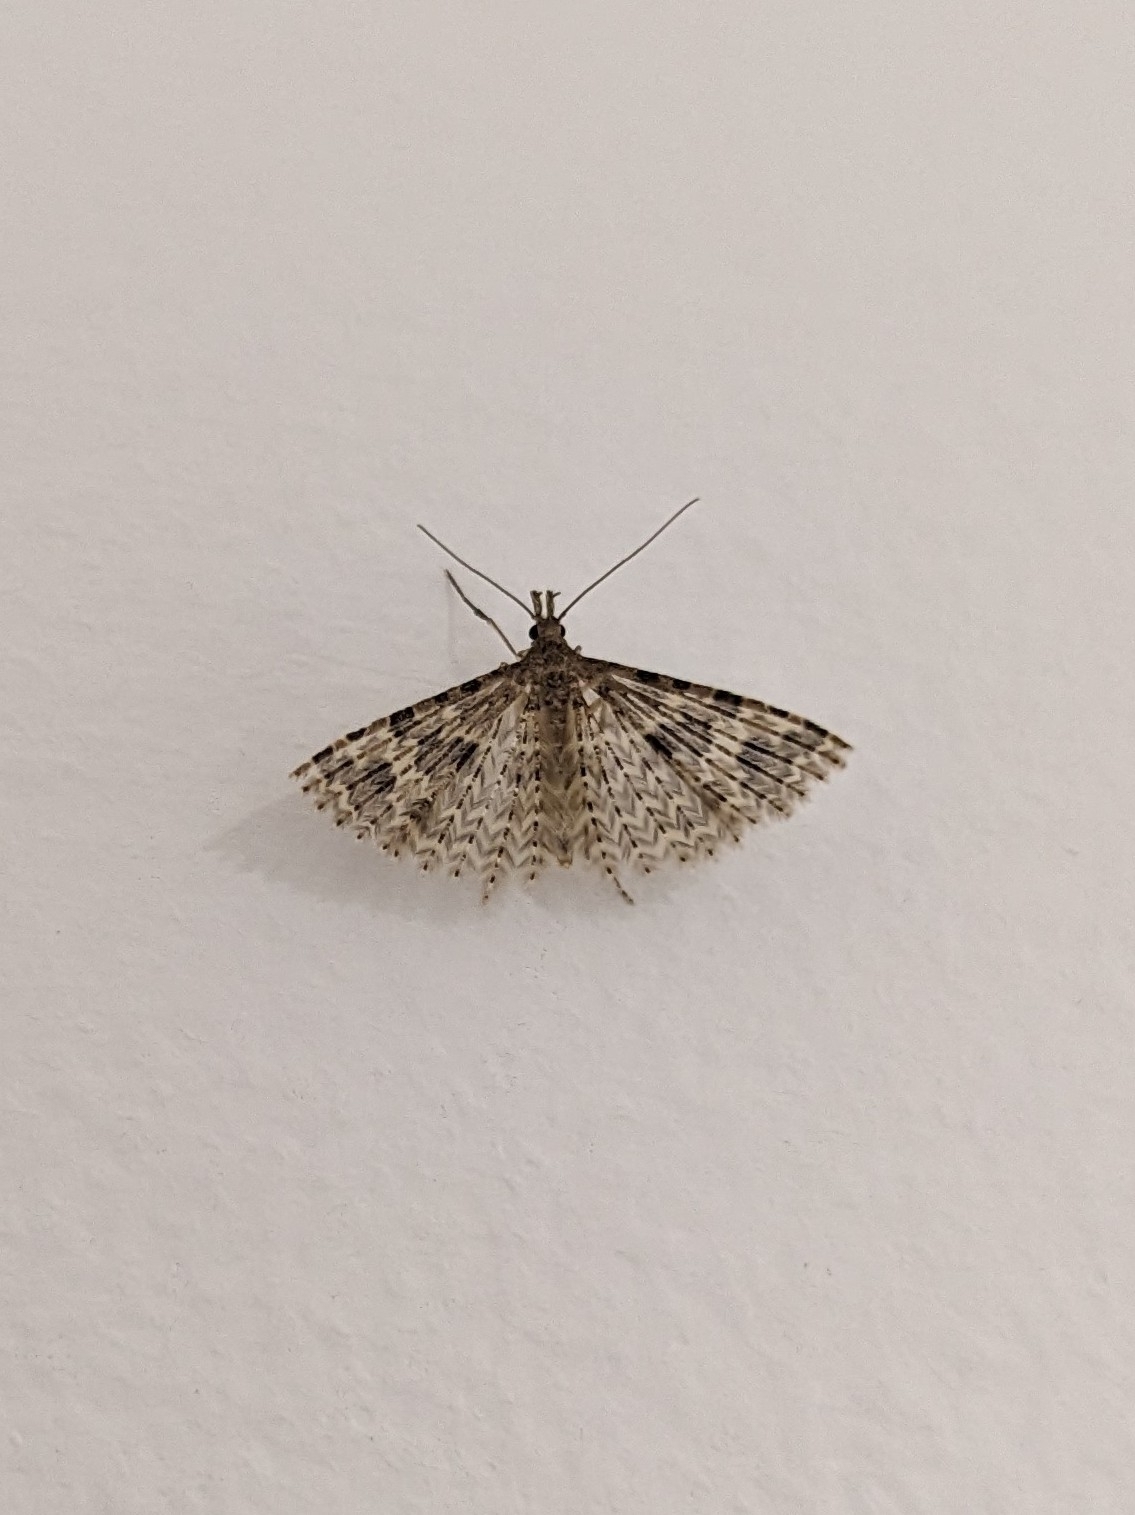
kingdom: Animalia
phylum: Arthropoda
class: Insecta
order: Lepidoptera
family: Alucitidae
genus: Alucita
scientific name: Alucita hexadactyla
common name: Twenty-plume moth
